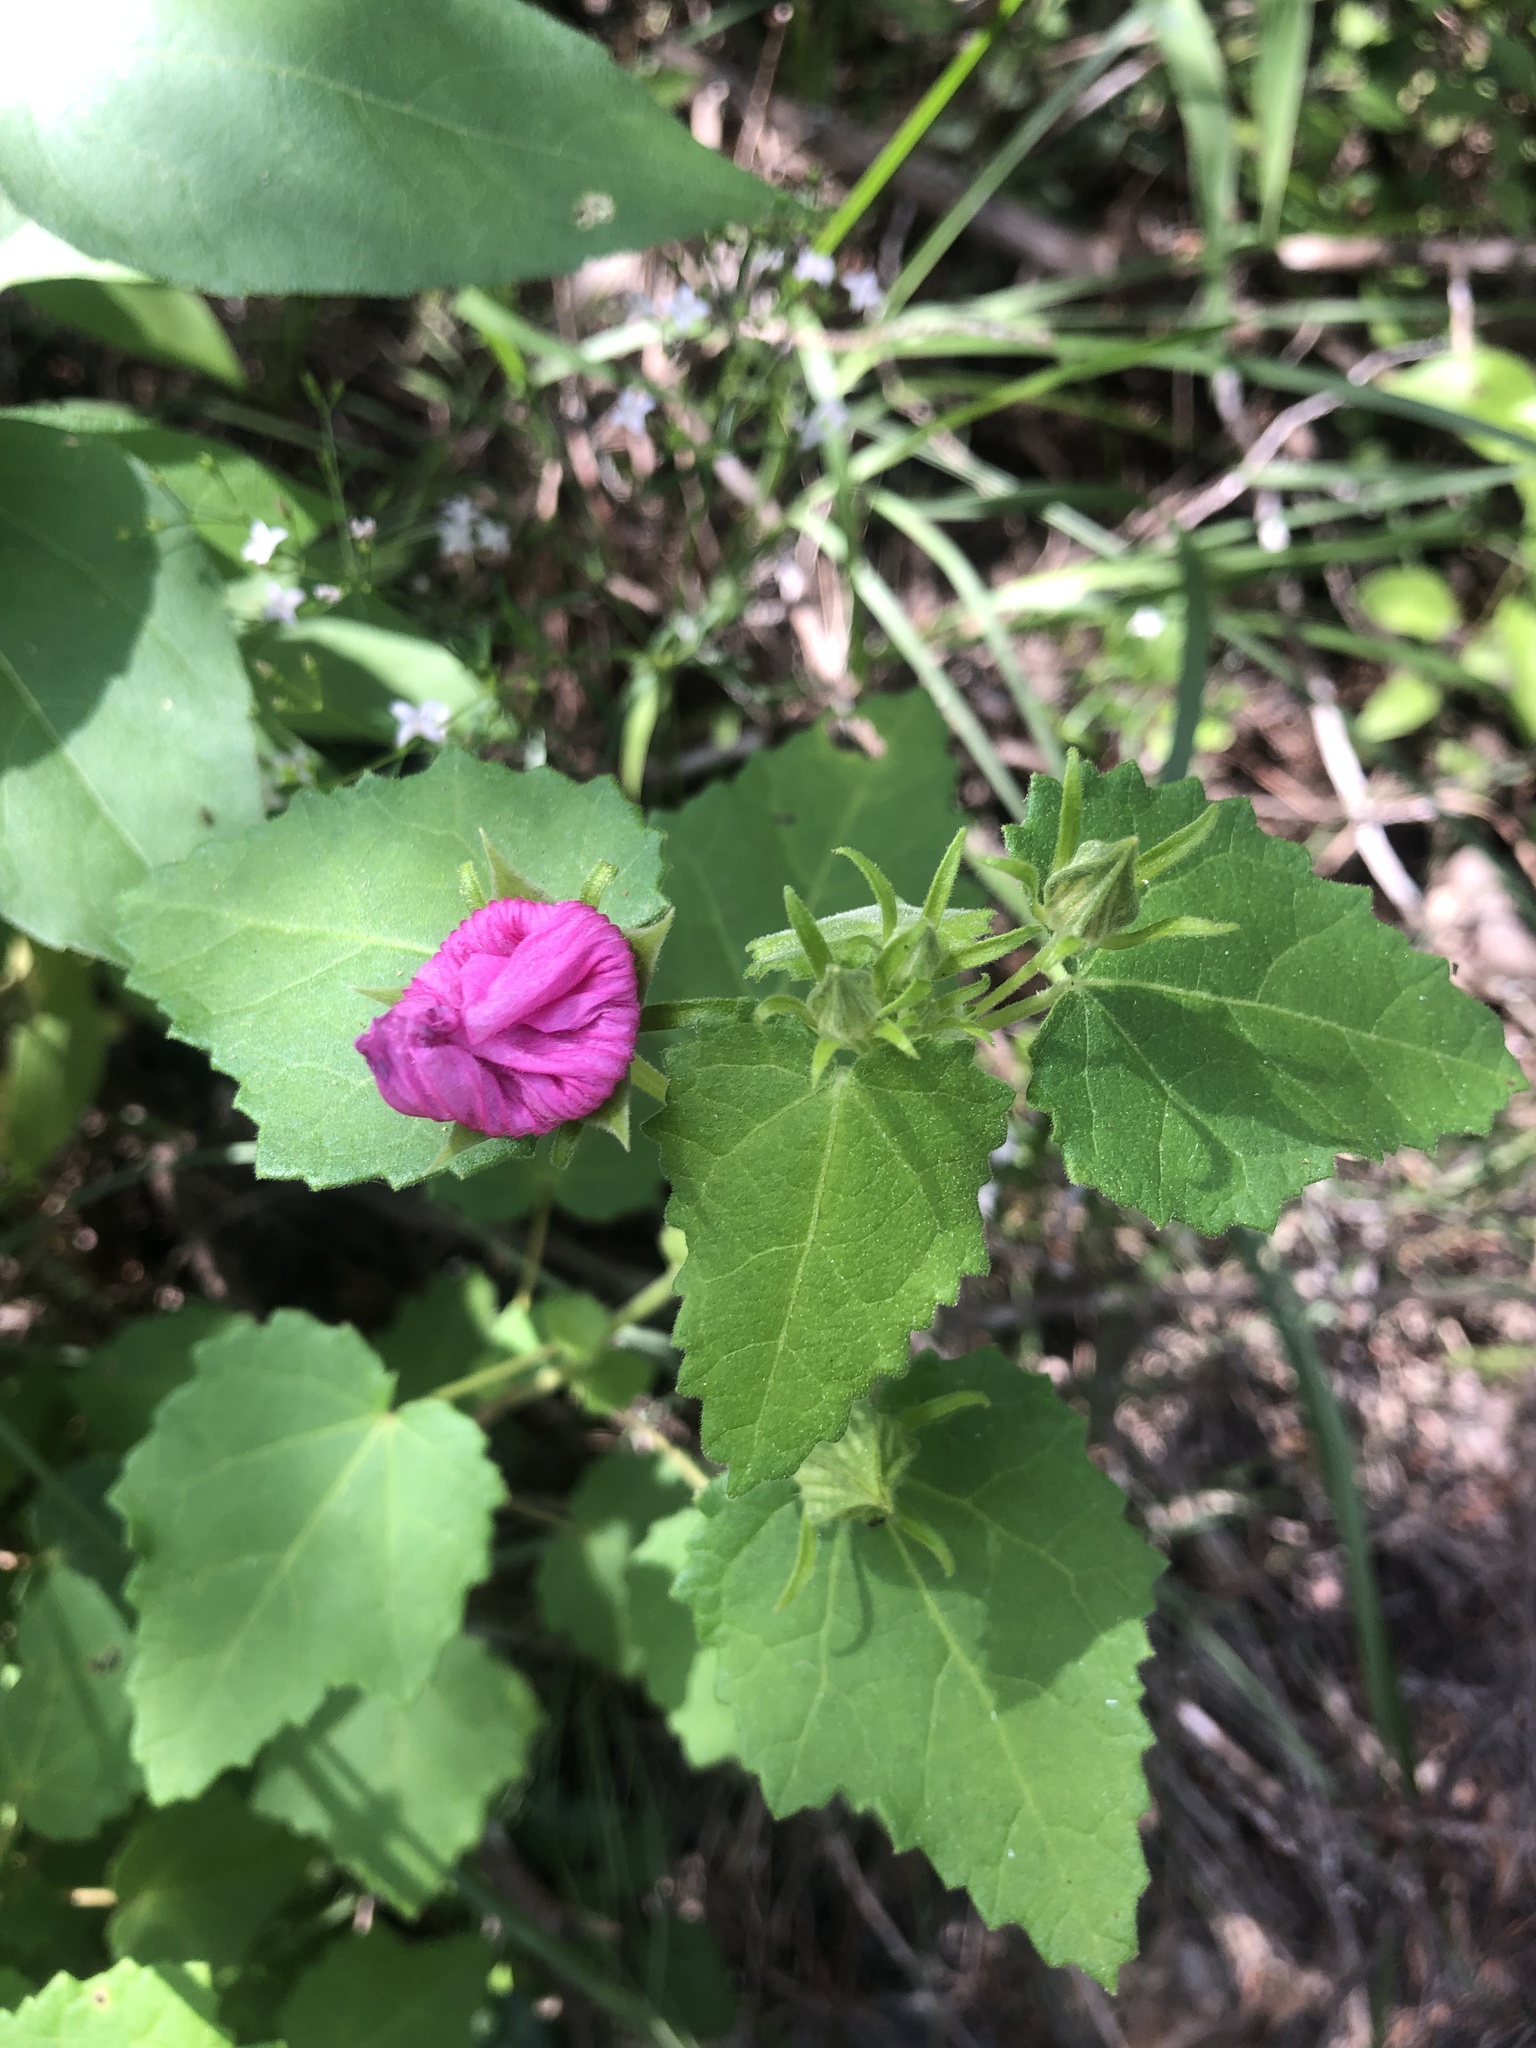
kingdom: Plantae
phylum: Tracheophyta
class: Magnoliopsida
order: Malvales
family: Malvaceae
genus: Pavonia
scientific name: Pavonia lasiopetala
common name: Texas swamp-mallow
